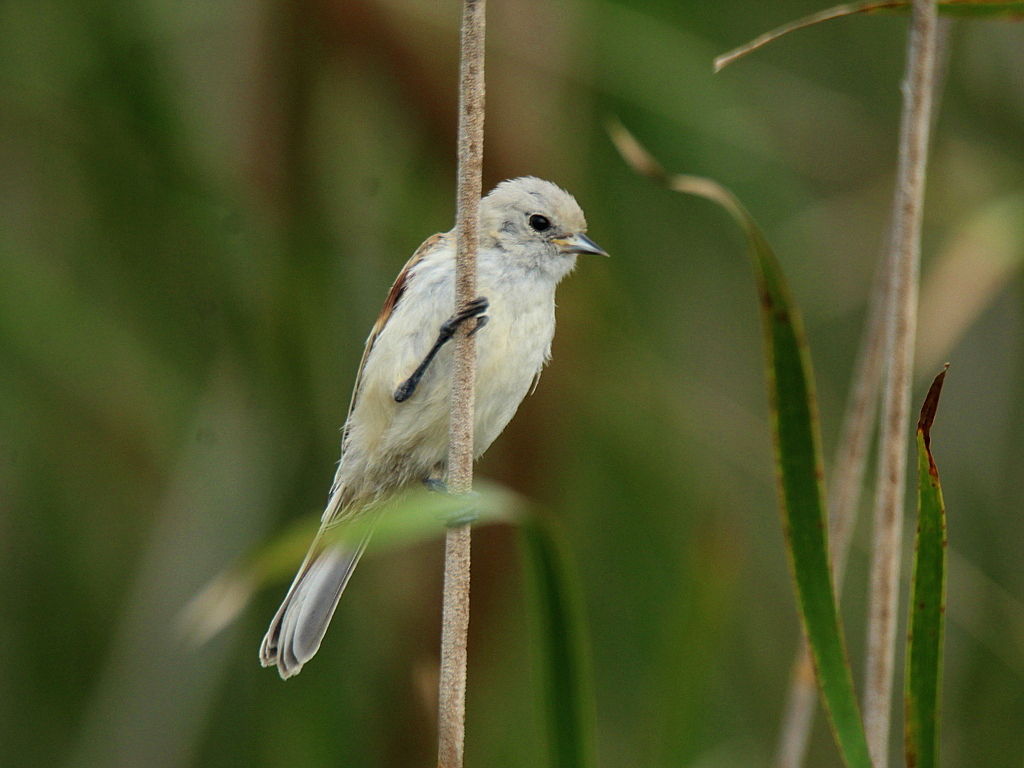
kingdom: Animalia
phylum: Chordata
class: Aves
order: Passeriformes
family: Remizidae
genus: Remiz
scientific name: Remiz pendulinus
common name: Eurasian penduline tit
